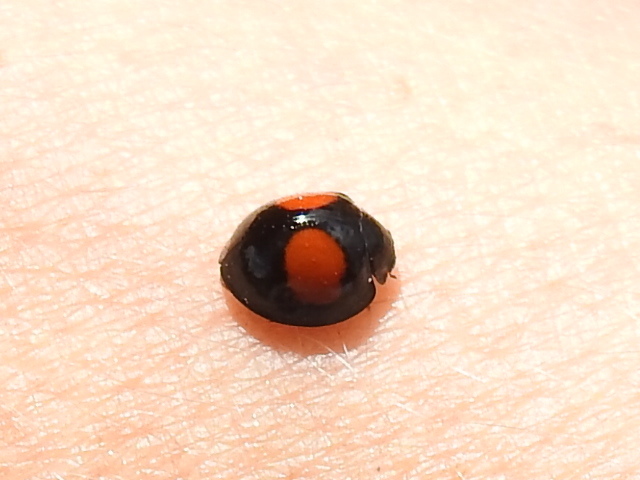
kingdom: Animalia
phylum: Arthropoda
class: Insecta
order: Coleoptera
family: Coccinellidae
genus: Chilocorus
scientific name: Chilocorus cacti
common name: Cactus lady beetle
